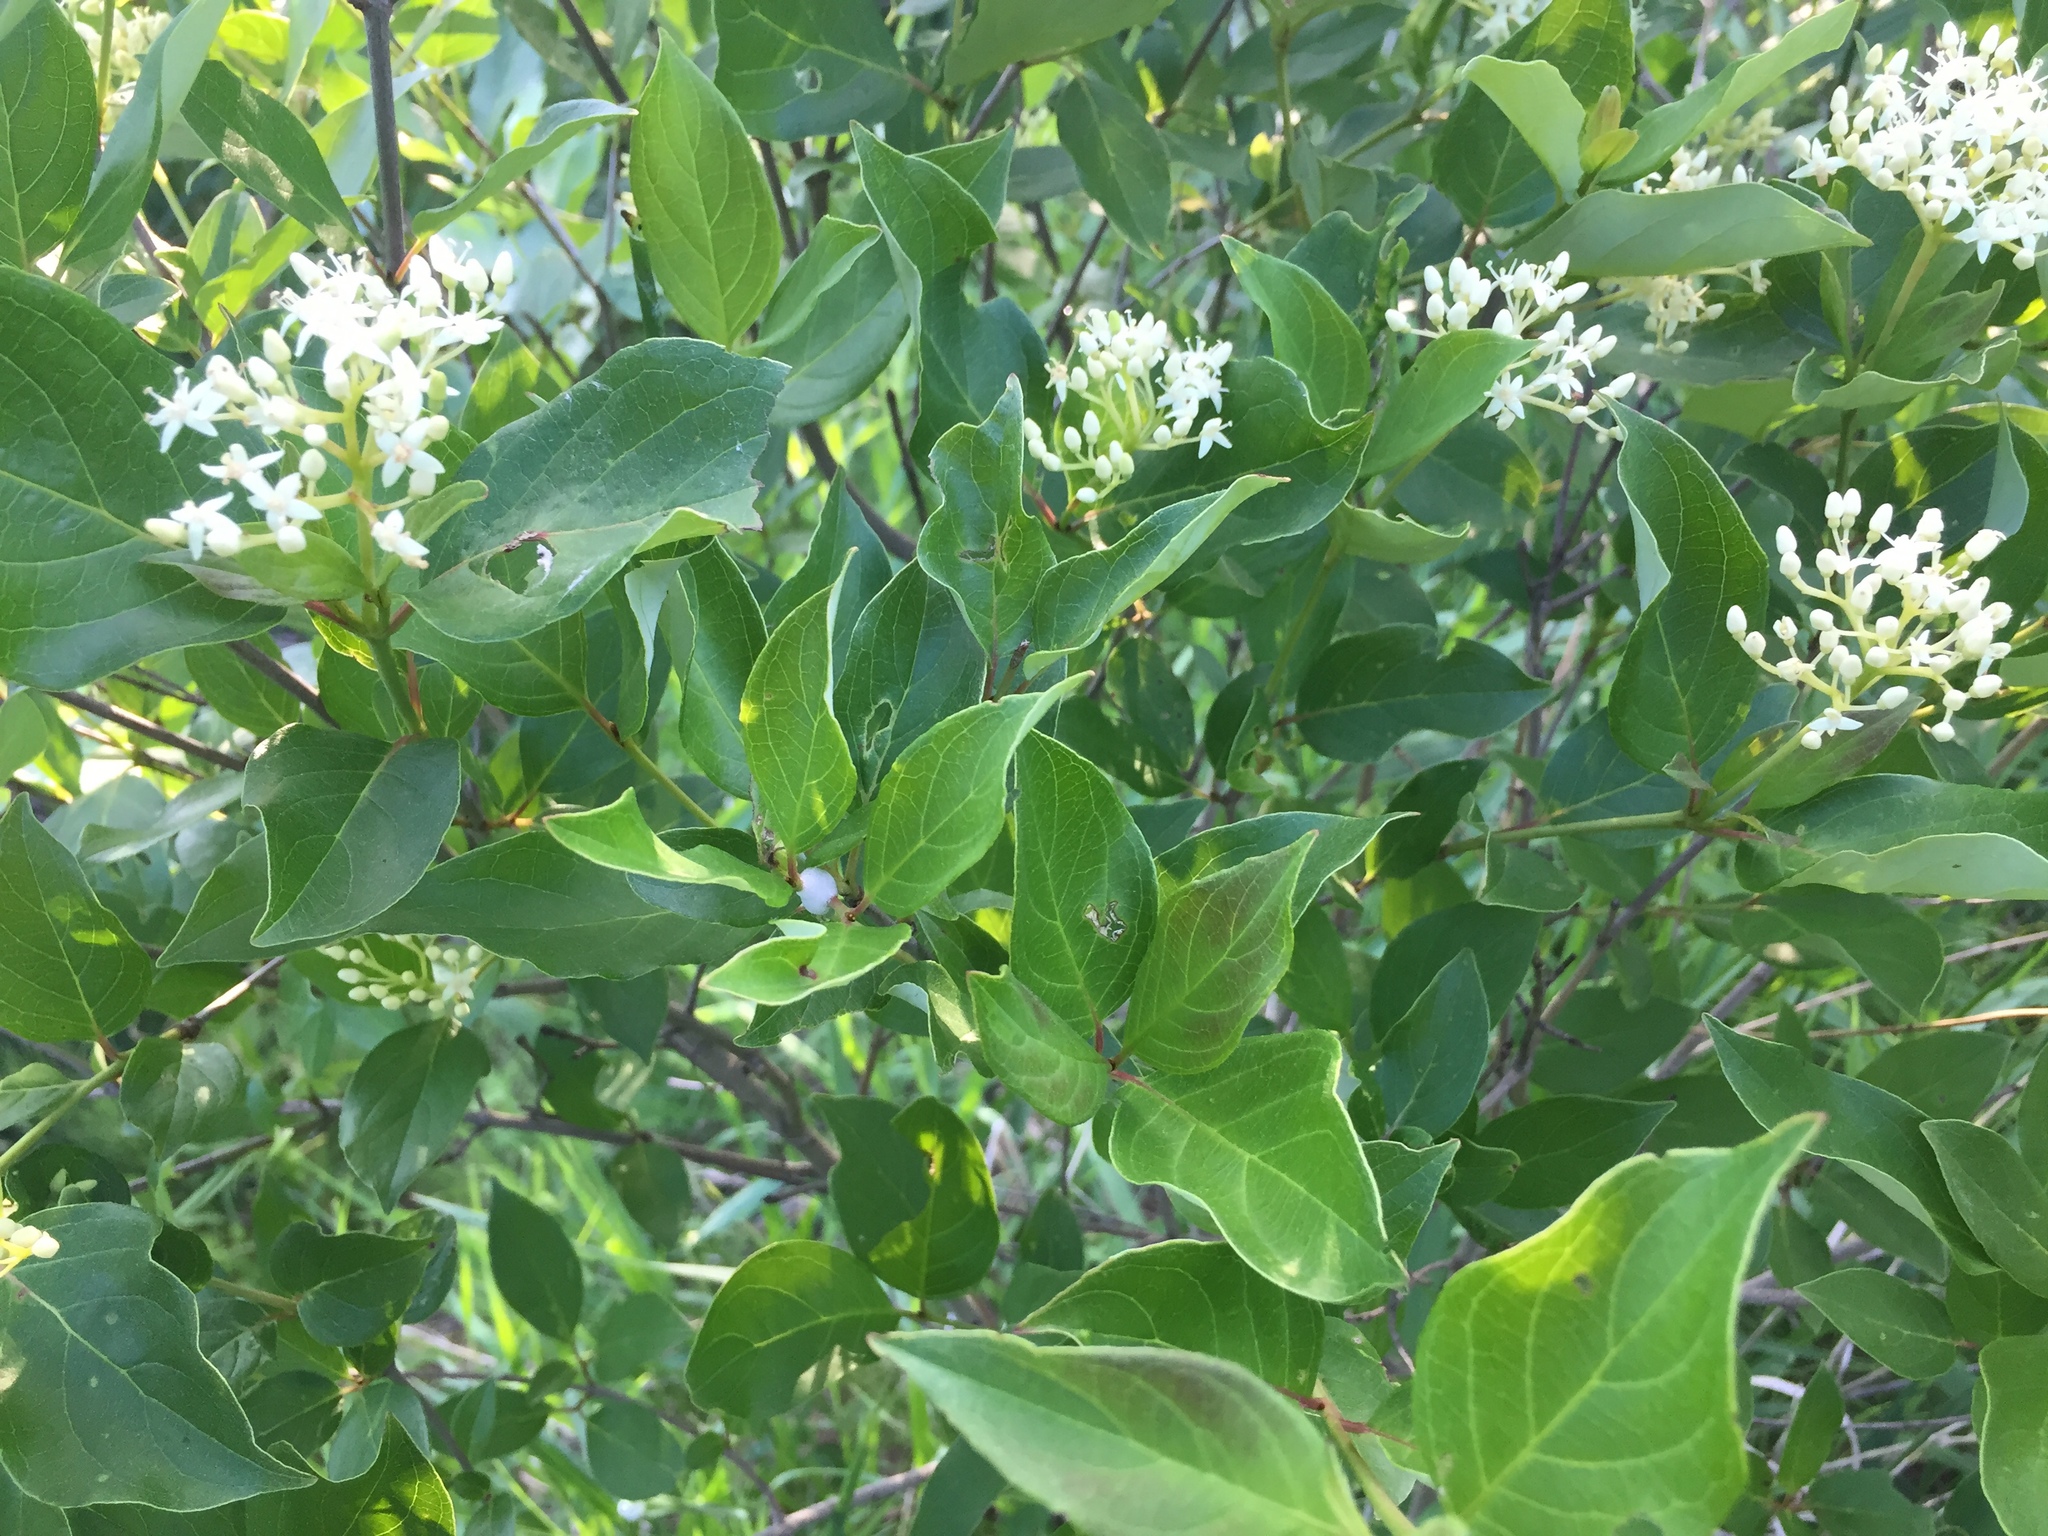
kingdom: Plantae
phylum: Tracheophyta
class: Magnoliopsida
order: Cornales
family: Cornaceae
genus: Cornus
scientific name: Cornus racemosa
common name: Panicled dogwood
